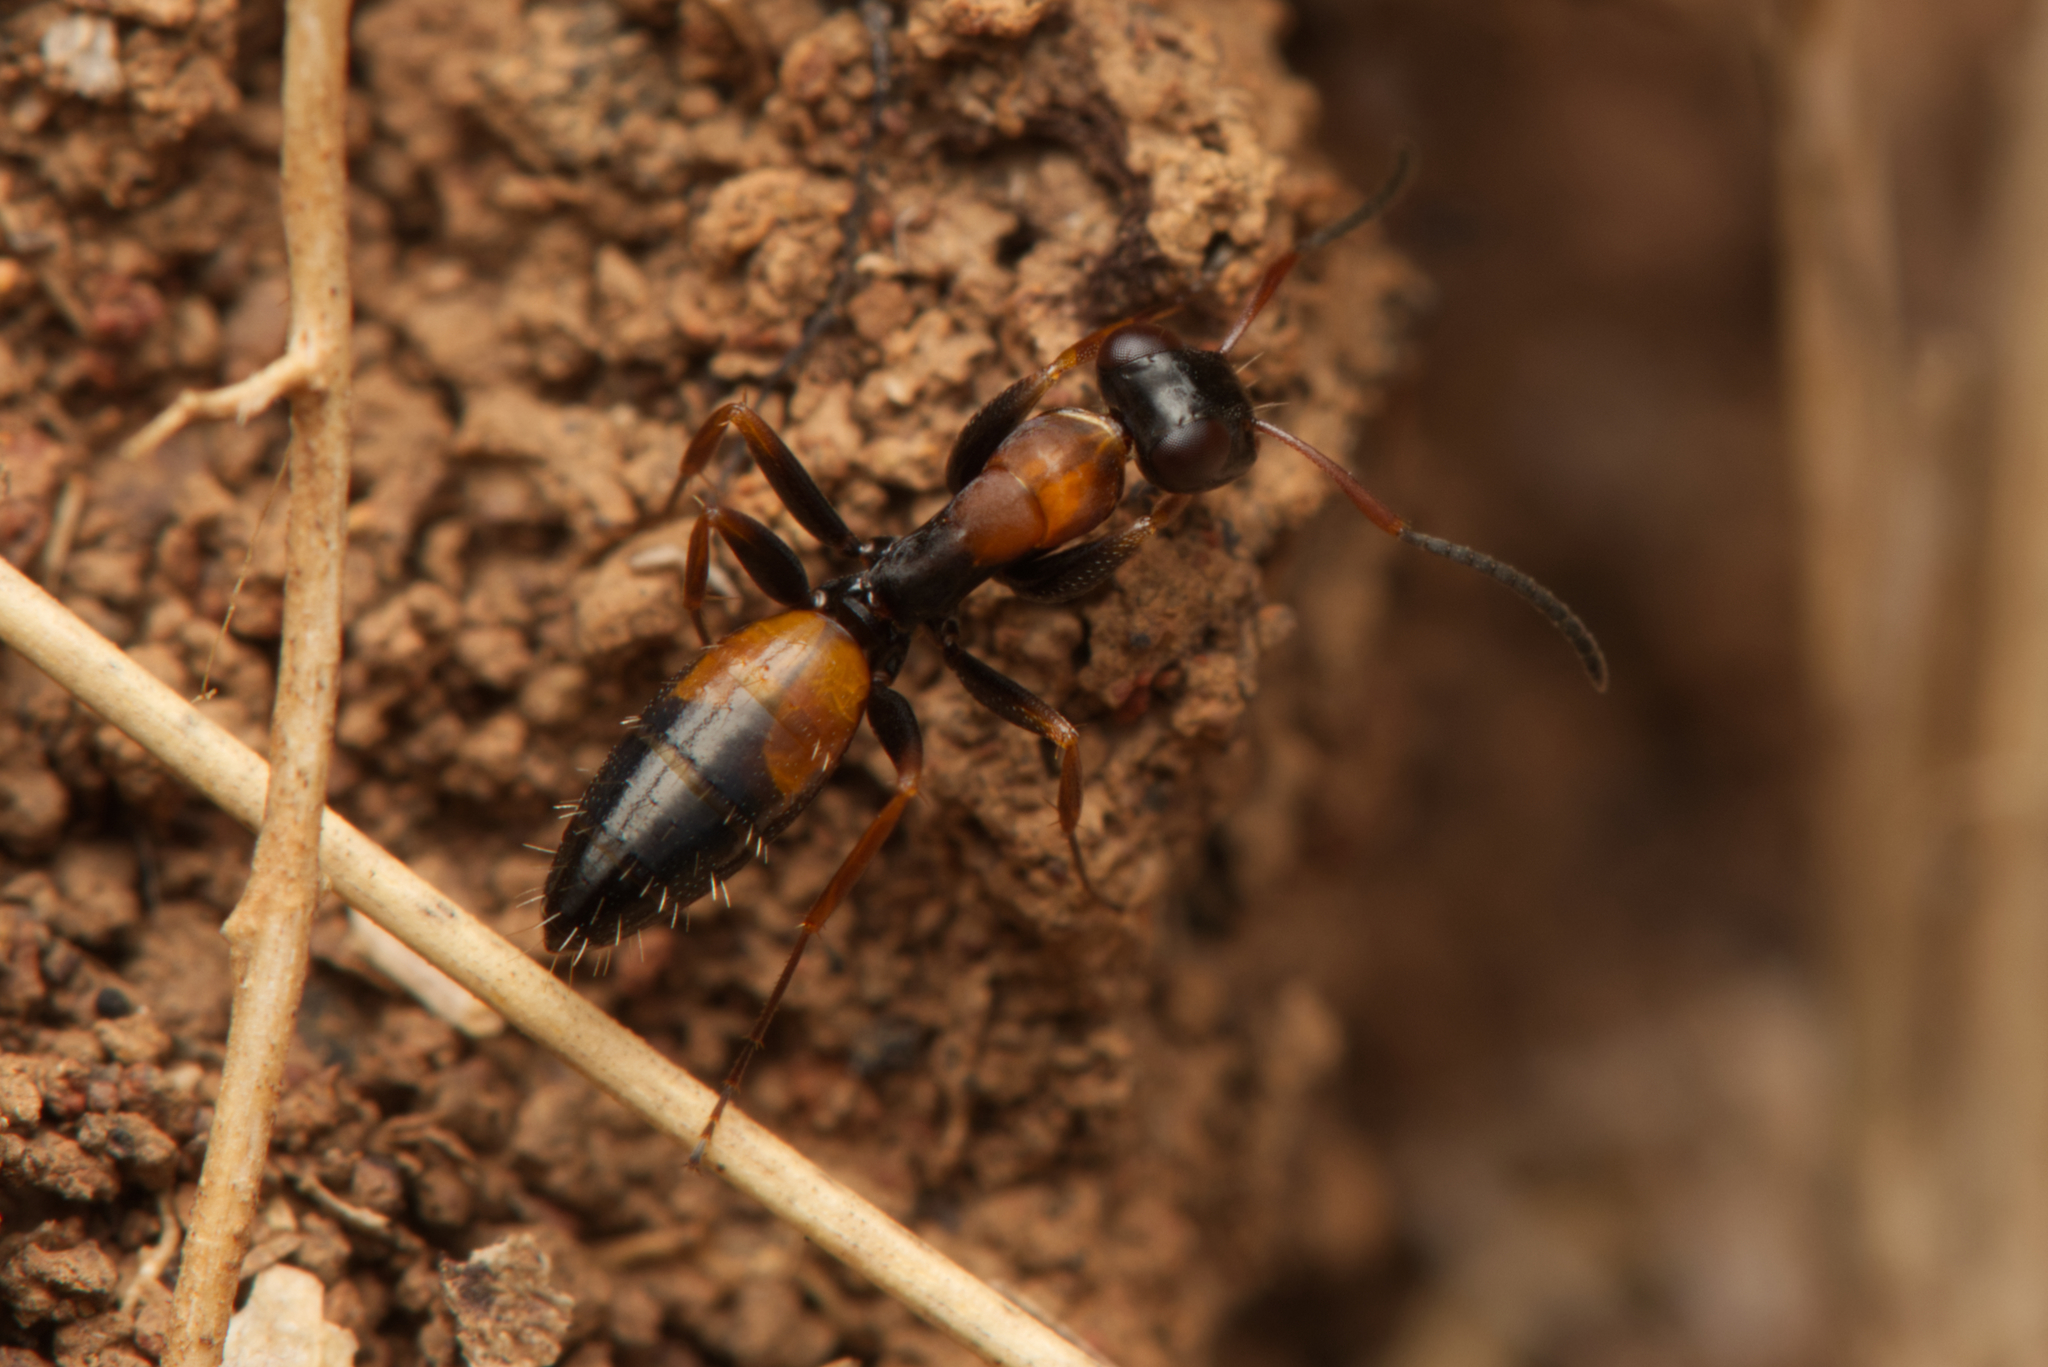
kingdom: Animalia
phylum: Arthropoda
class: Insecta
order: Hymenoptera
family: Formicidae
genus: Opisthopsis
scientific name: Opisthopsis pictus
